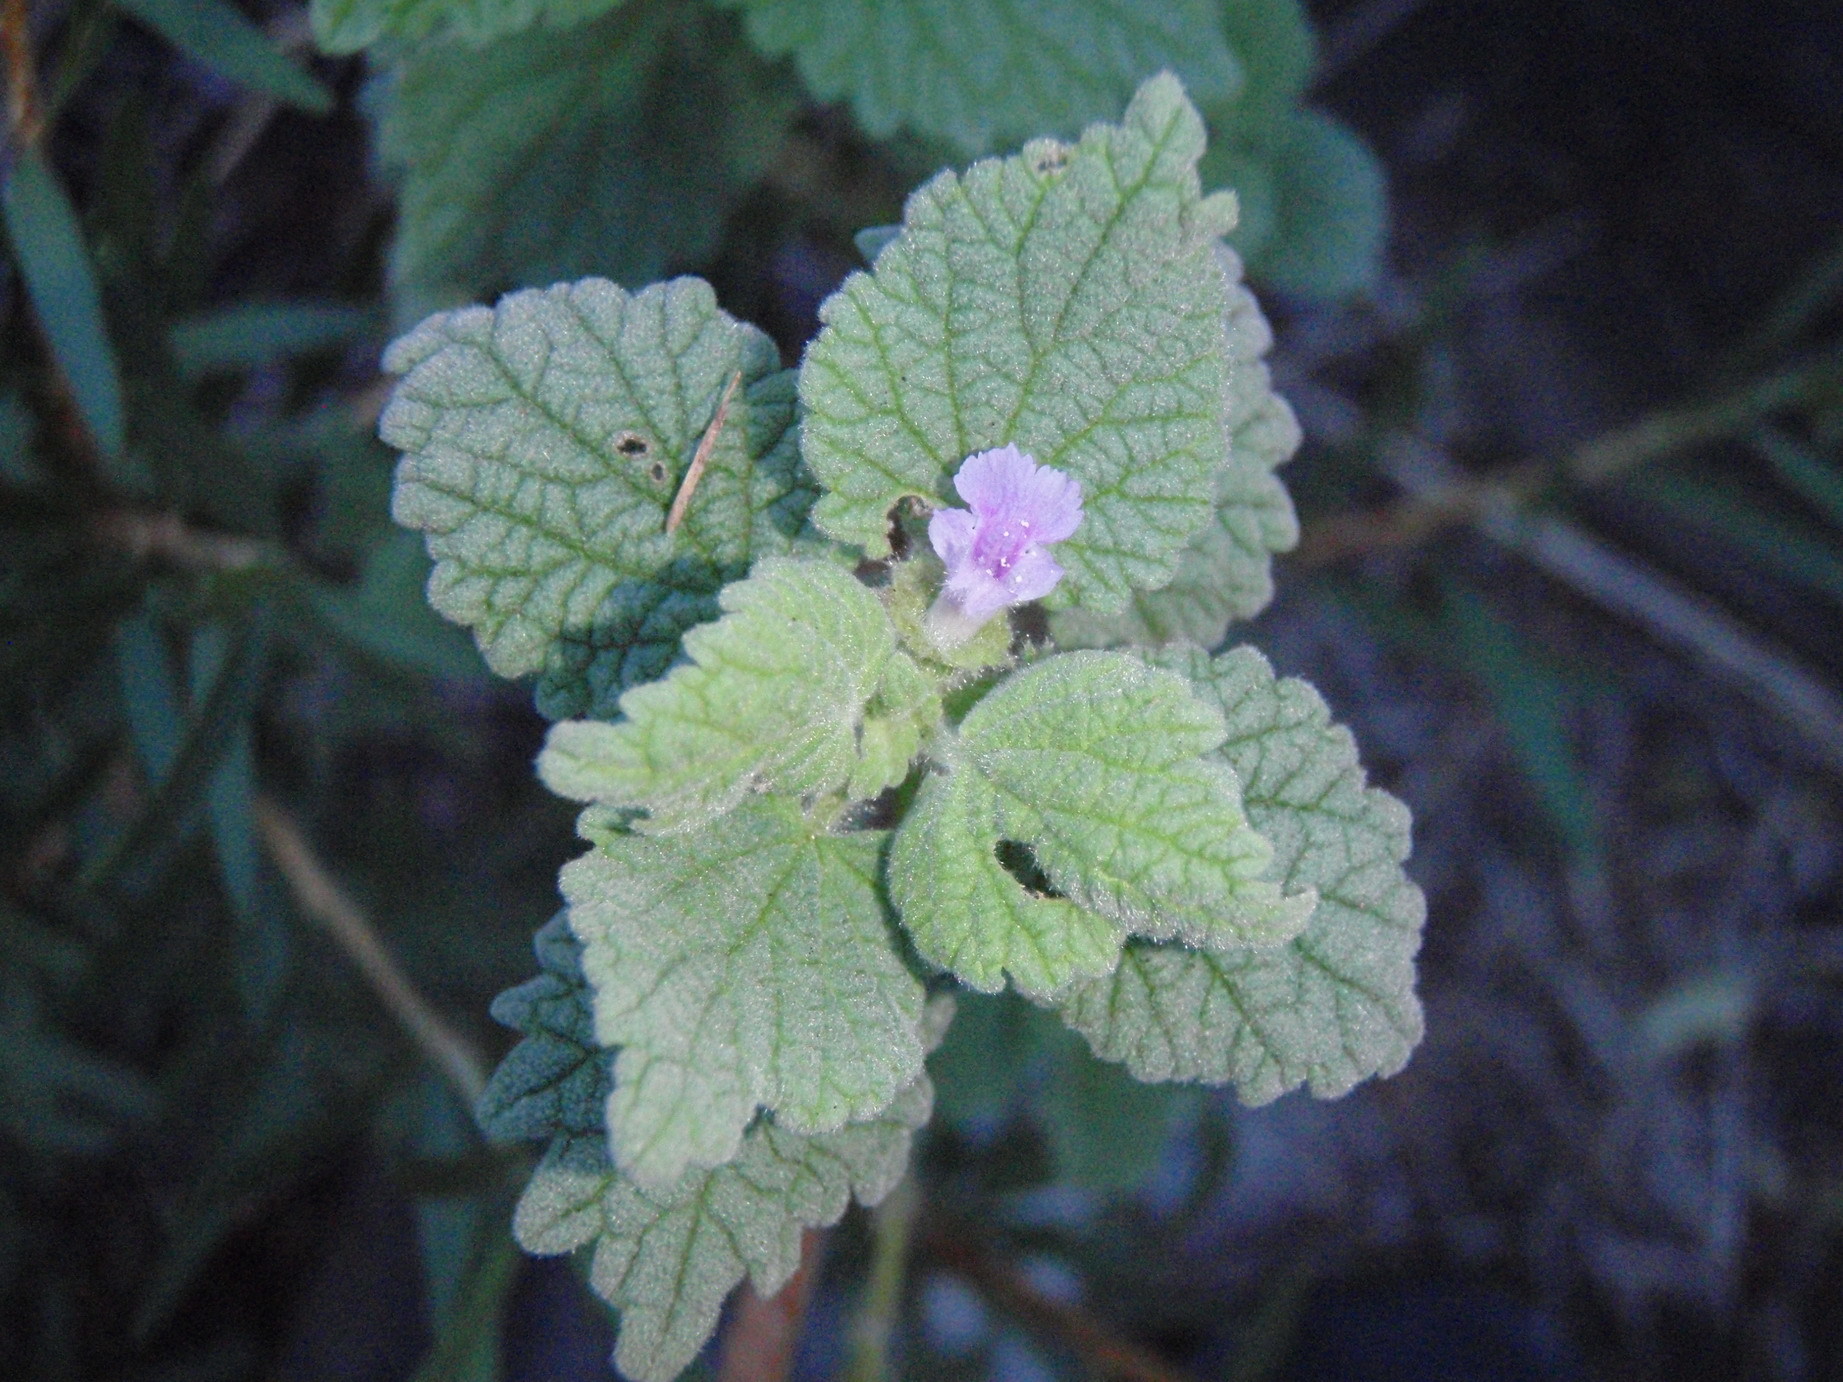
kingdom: Plantae
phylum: Tracheophyta
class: Magnoliopsida
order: Lamiales
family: Lamiaceae
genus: Pseudodictamnus
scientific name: Pseudodictamnus africanus
